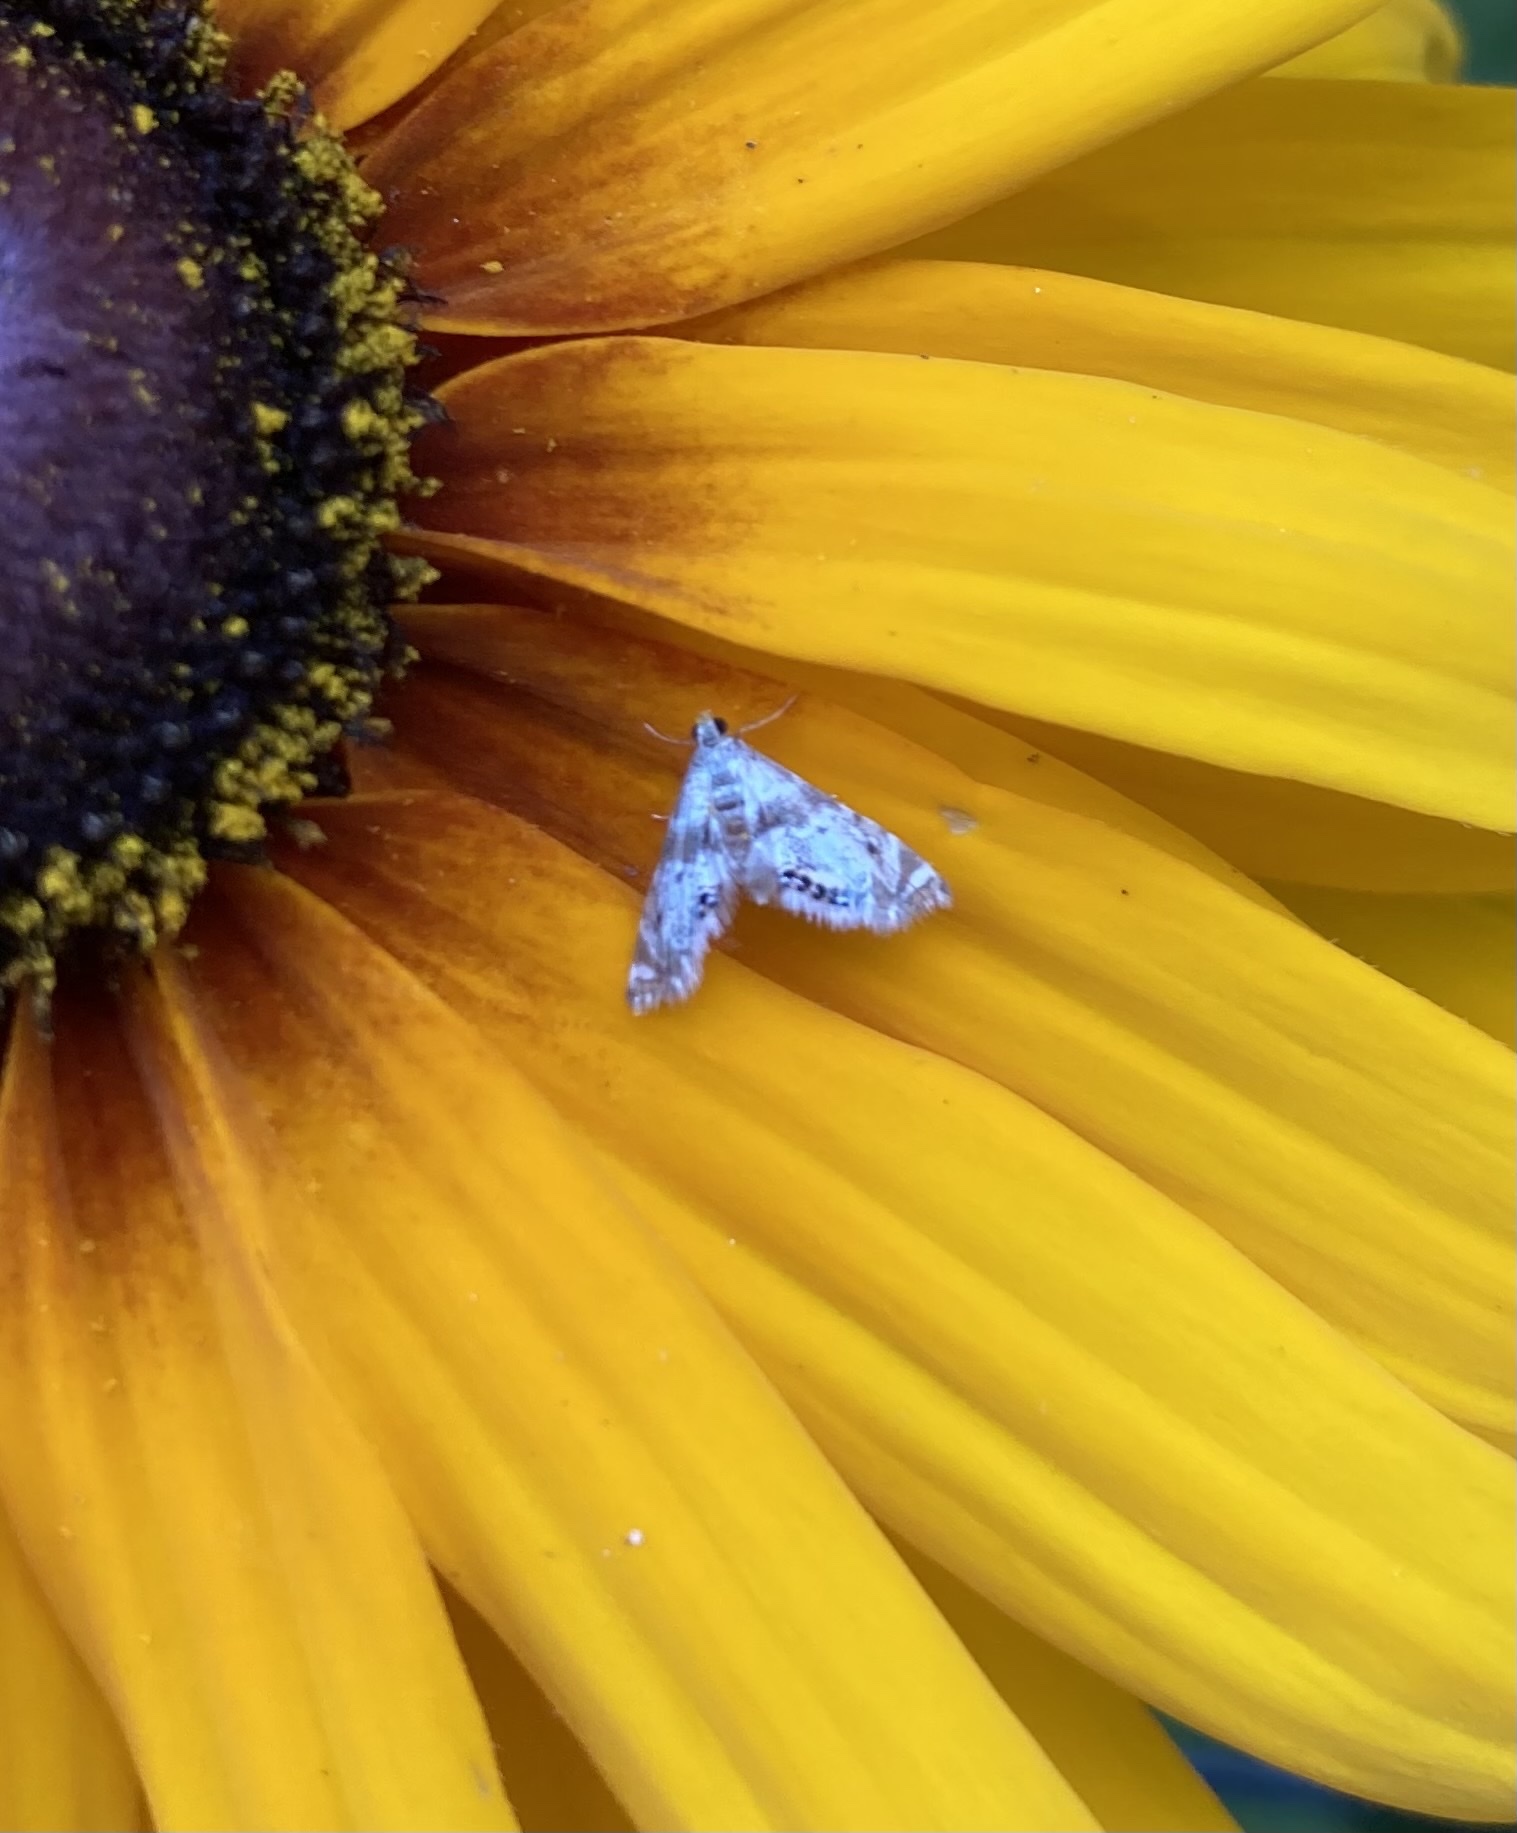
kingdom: Animalia
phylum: Arthropoda
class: Insecta
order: Lepidoptera
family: Crambidae
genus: Petrophila
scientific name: Petrophila fulicalis
